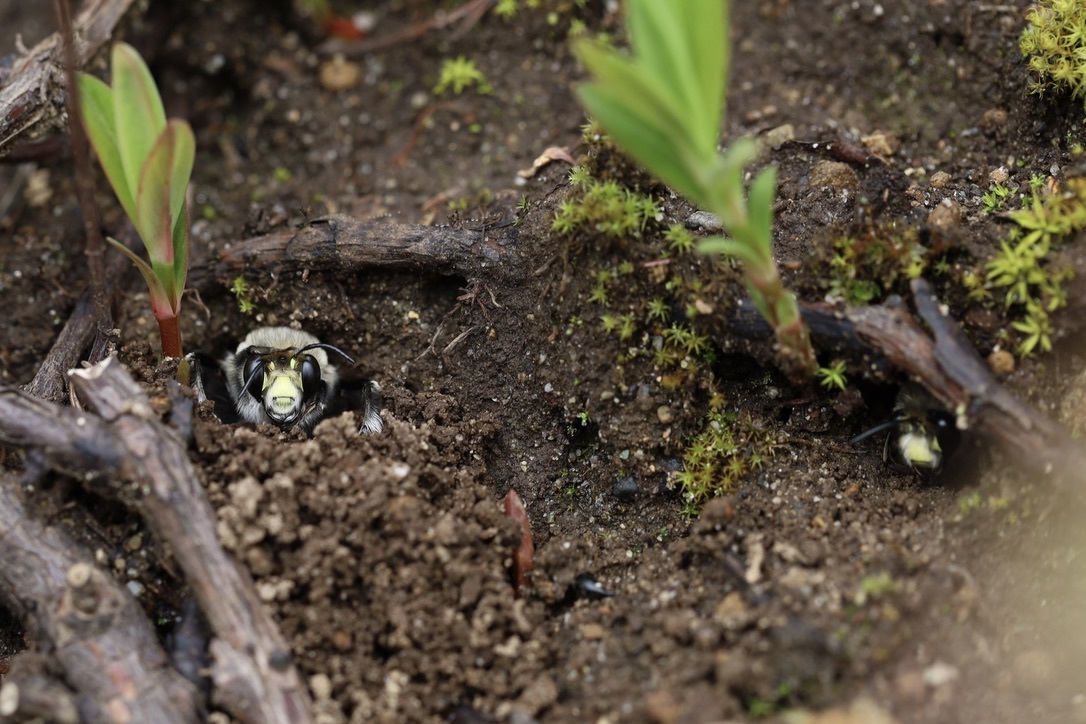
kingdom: Animalia
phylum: Arthropoda
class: Insecta
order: Hymenoptera
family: Apidae
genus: Anthophora
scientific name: Anthophora pacifica
